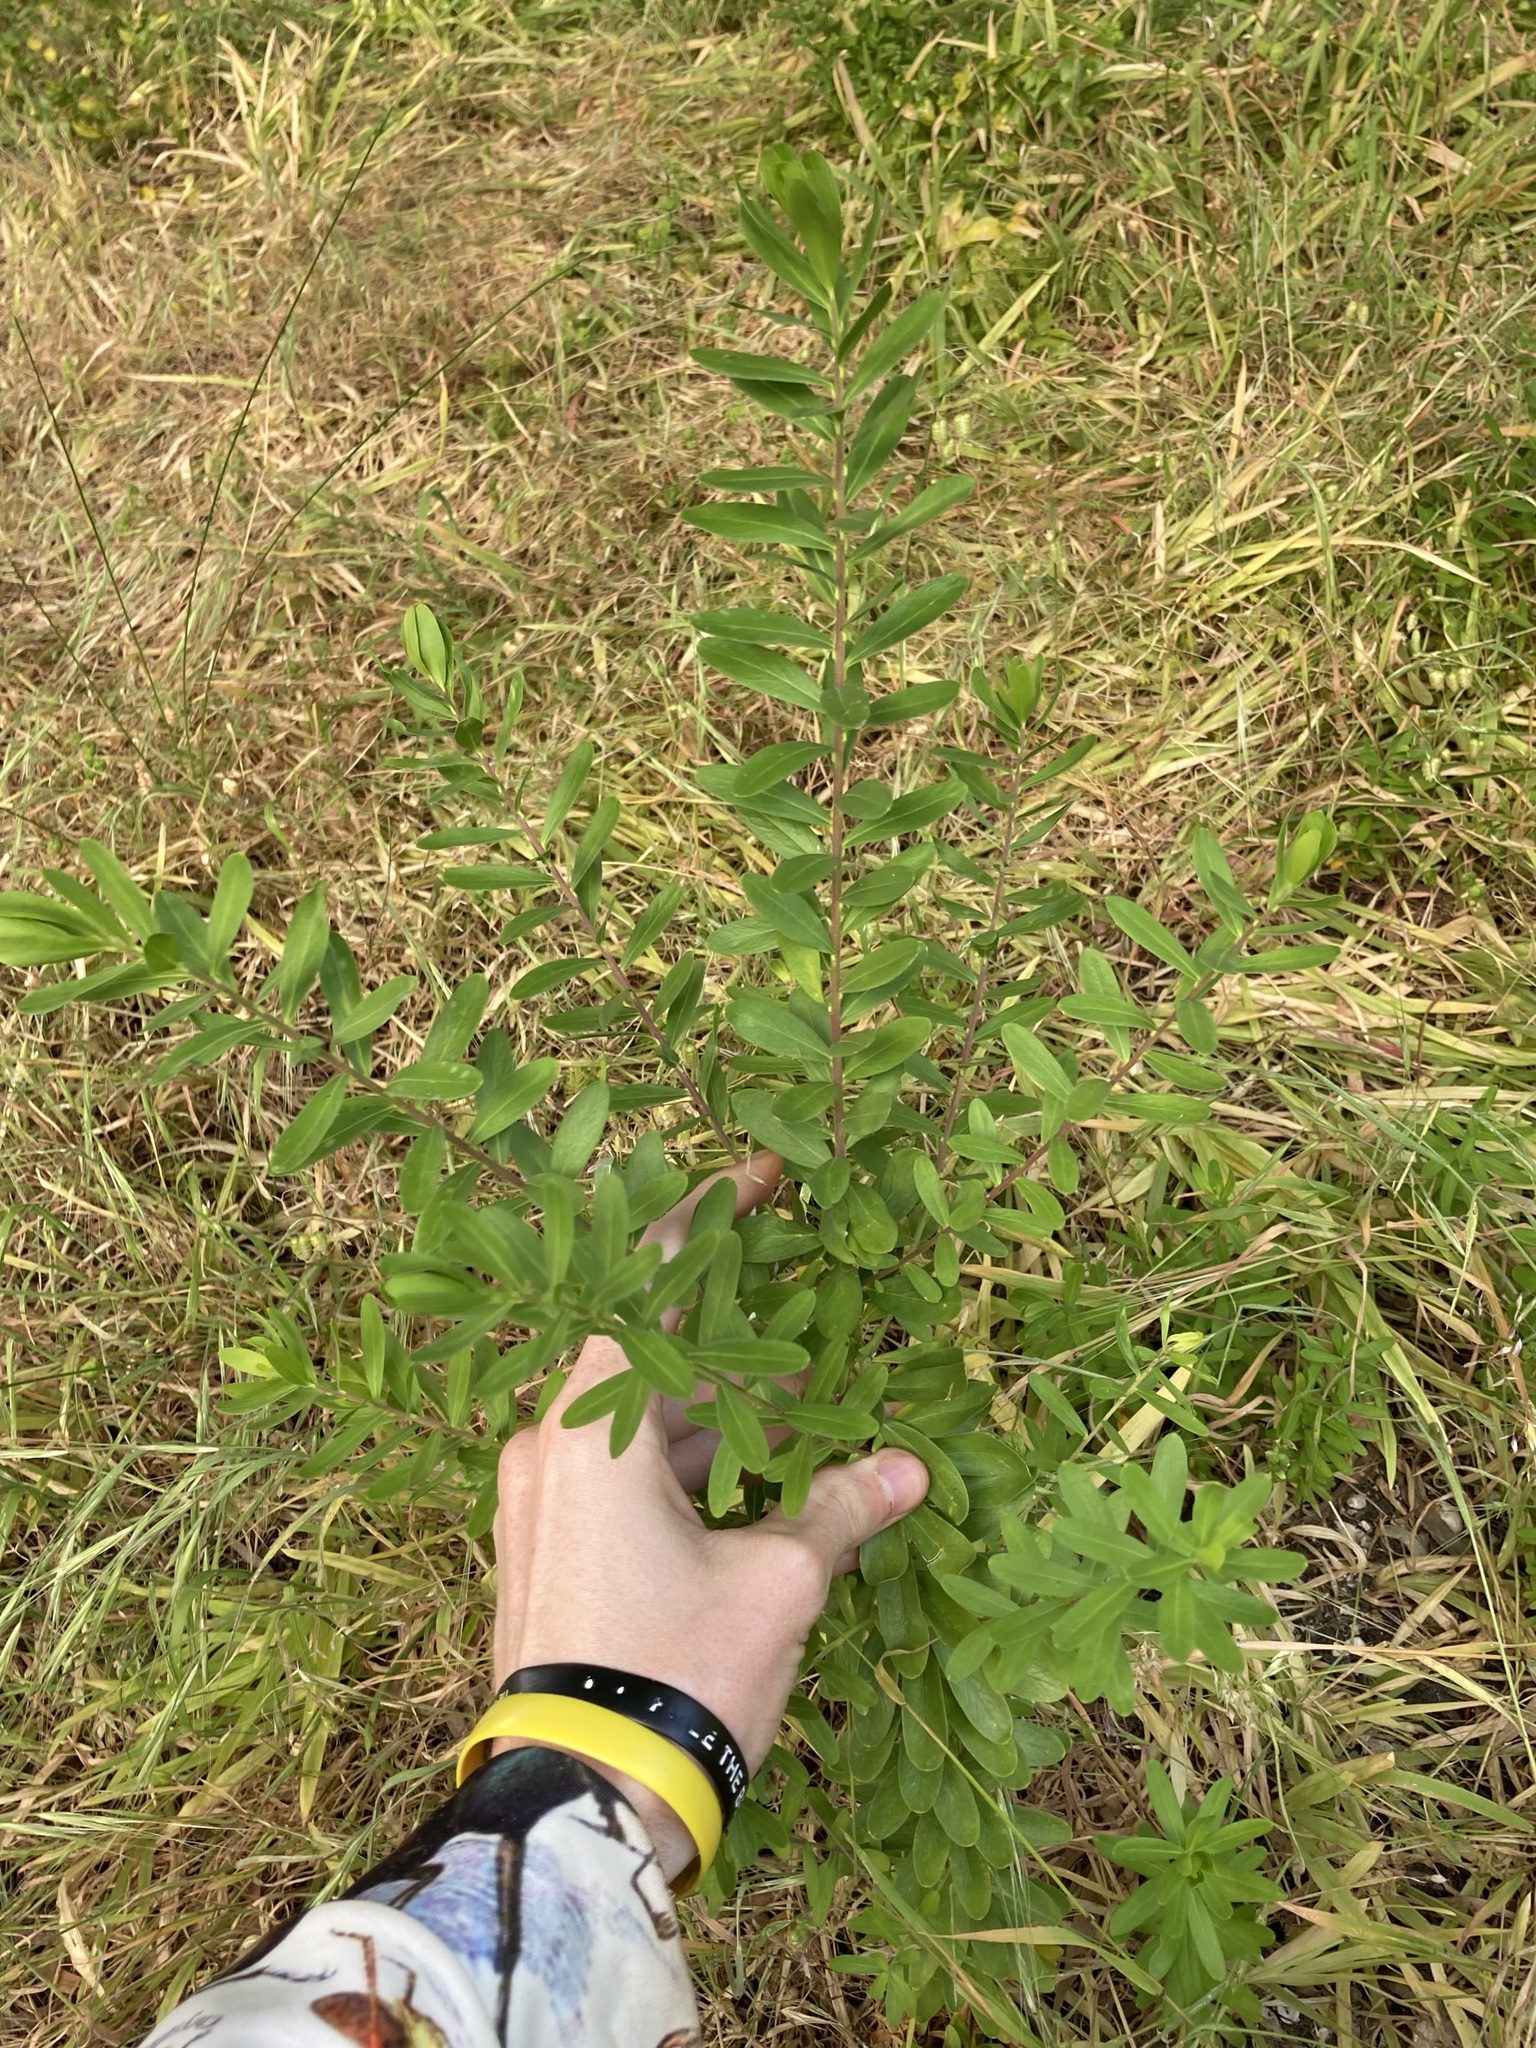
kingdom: Plantae
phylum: Tracheophyta
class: Magnoliopsida
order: Fabales
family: Polygalaceae
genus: Polygala
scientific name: Polygala myrtifolia
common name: Myrtle-leaf milkwort
